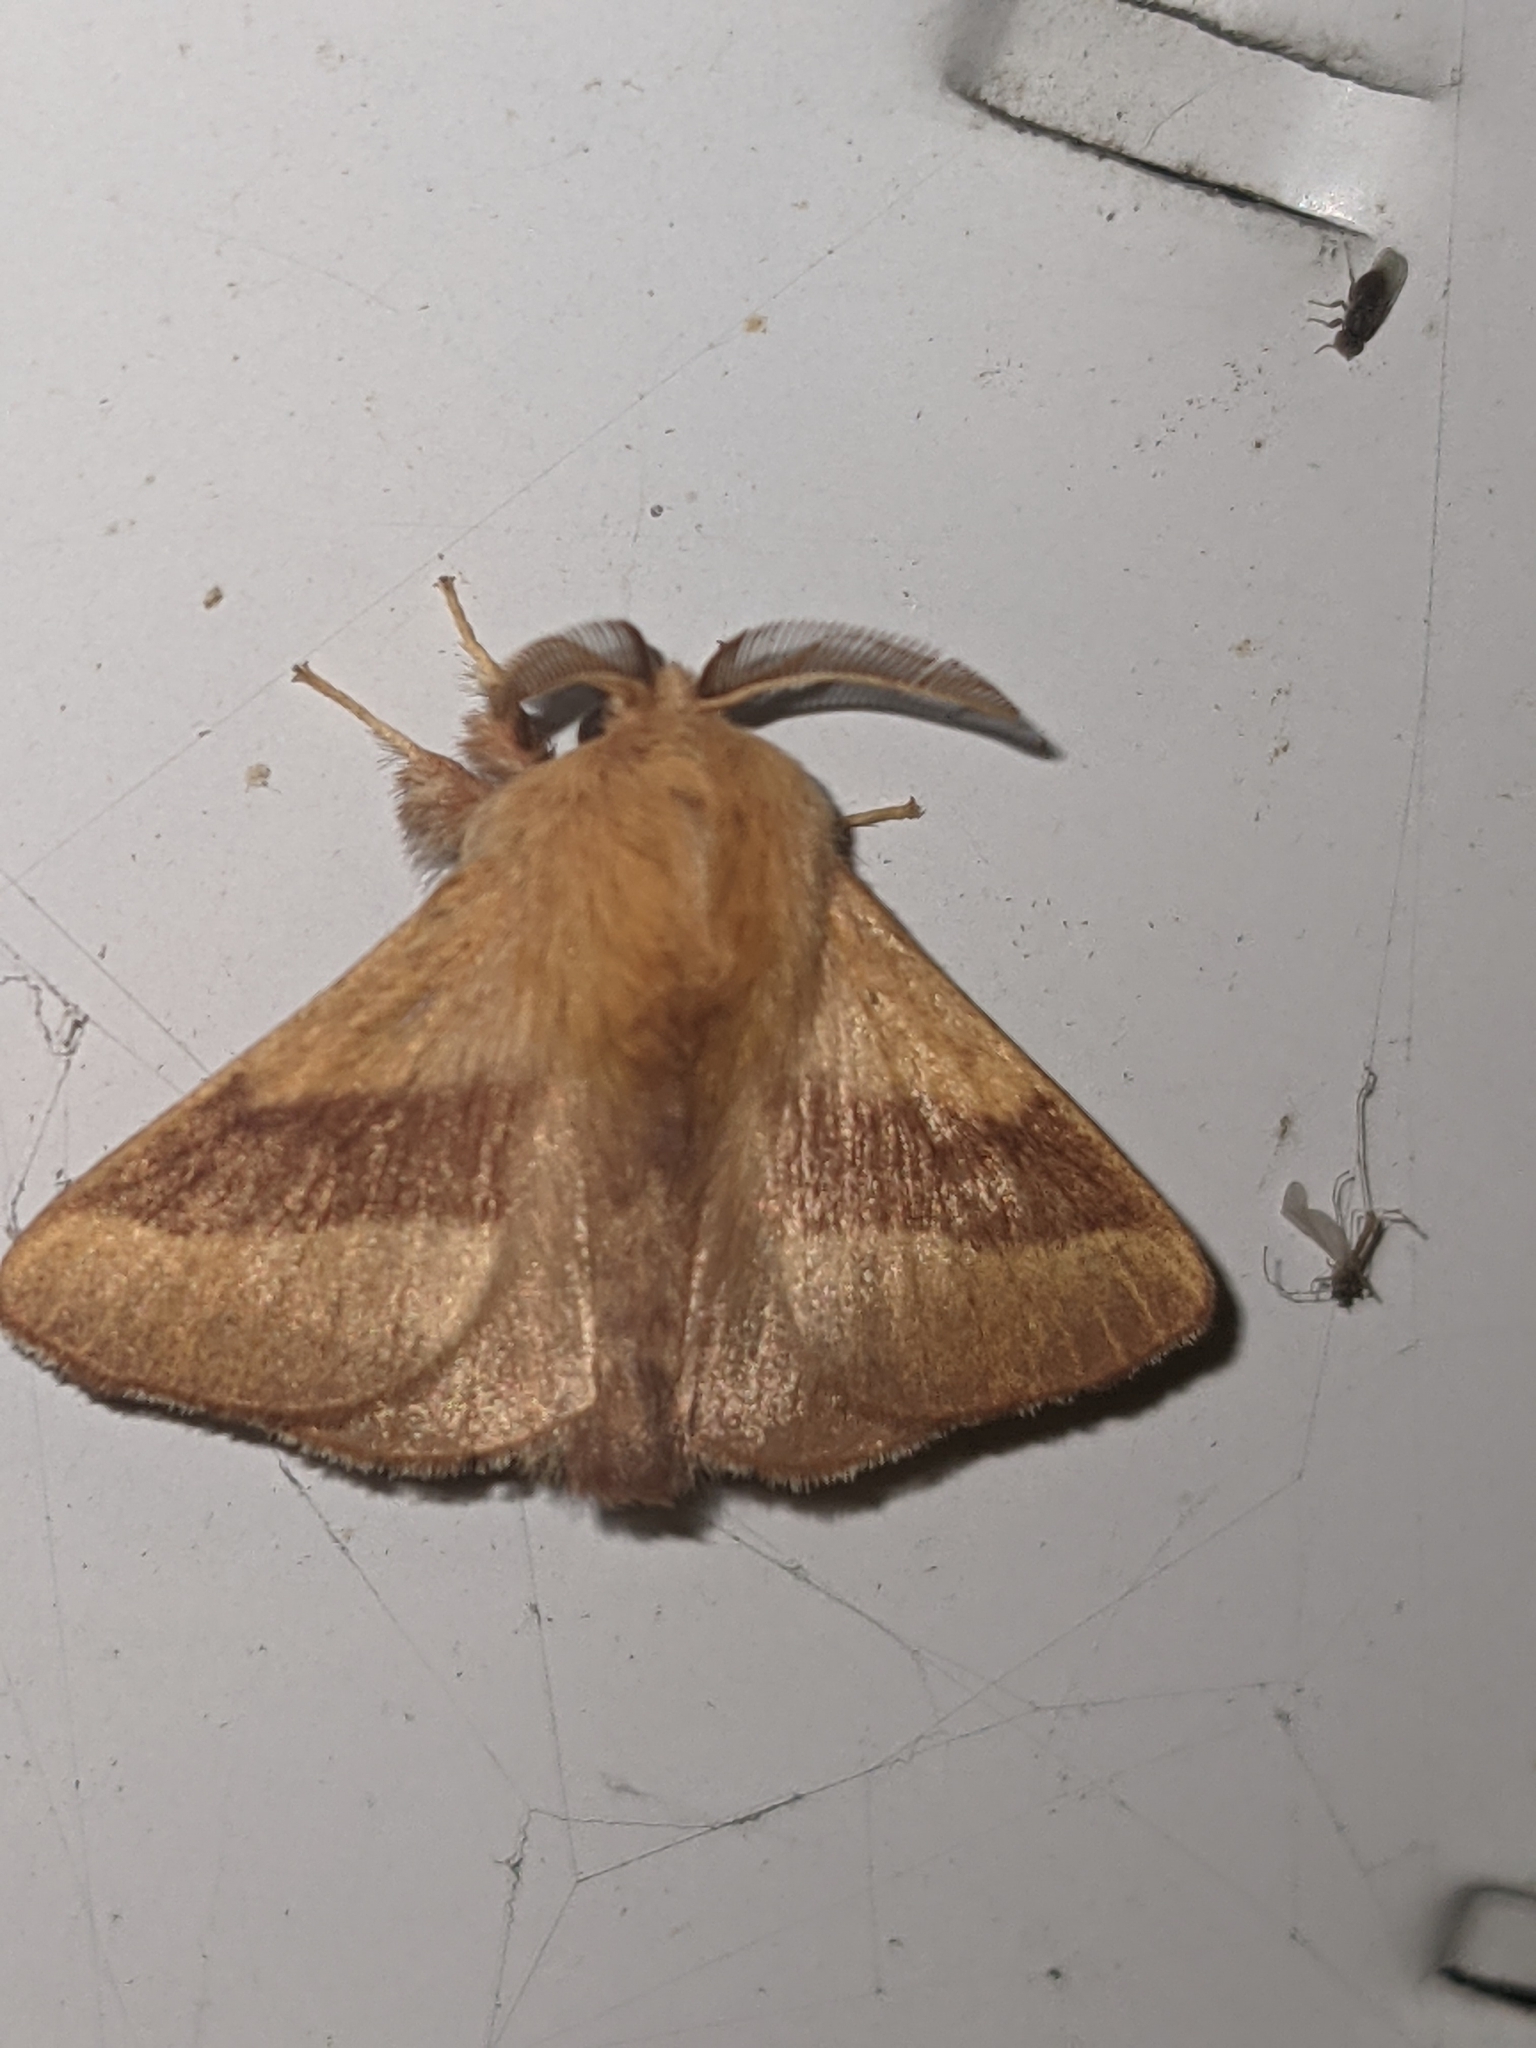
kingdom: Animalia
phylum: Arthropoda
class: Insecta
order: Lepidoptera
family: Lasiocampidae
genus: Malacosoma
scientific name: Malacosoma disstria
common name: Forest tent caterpillar
